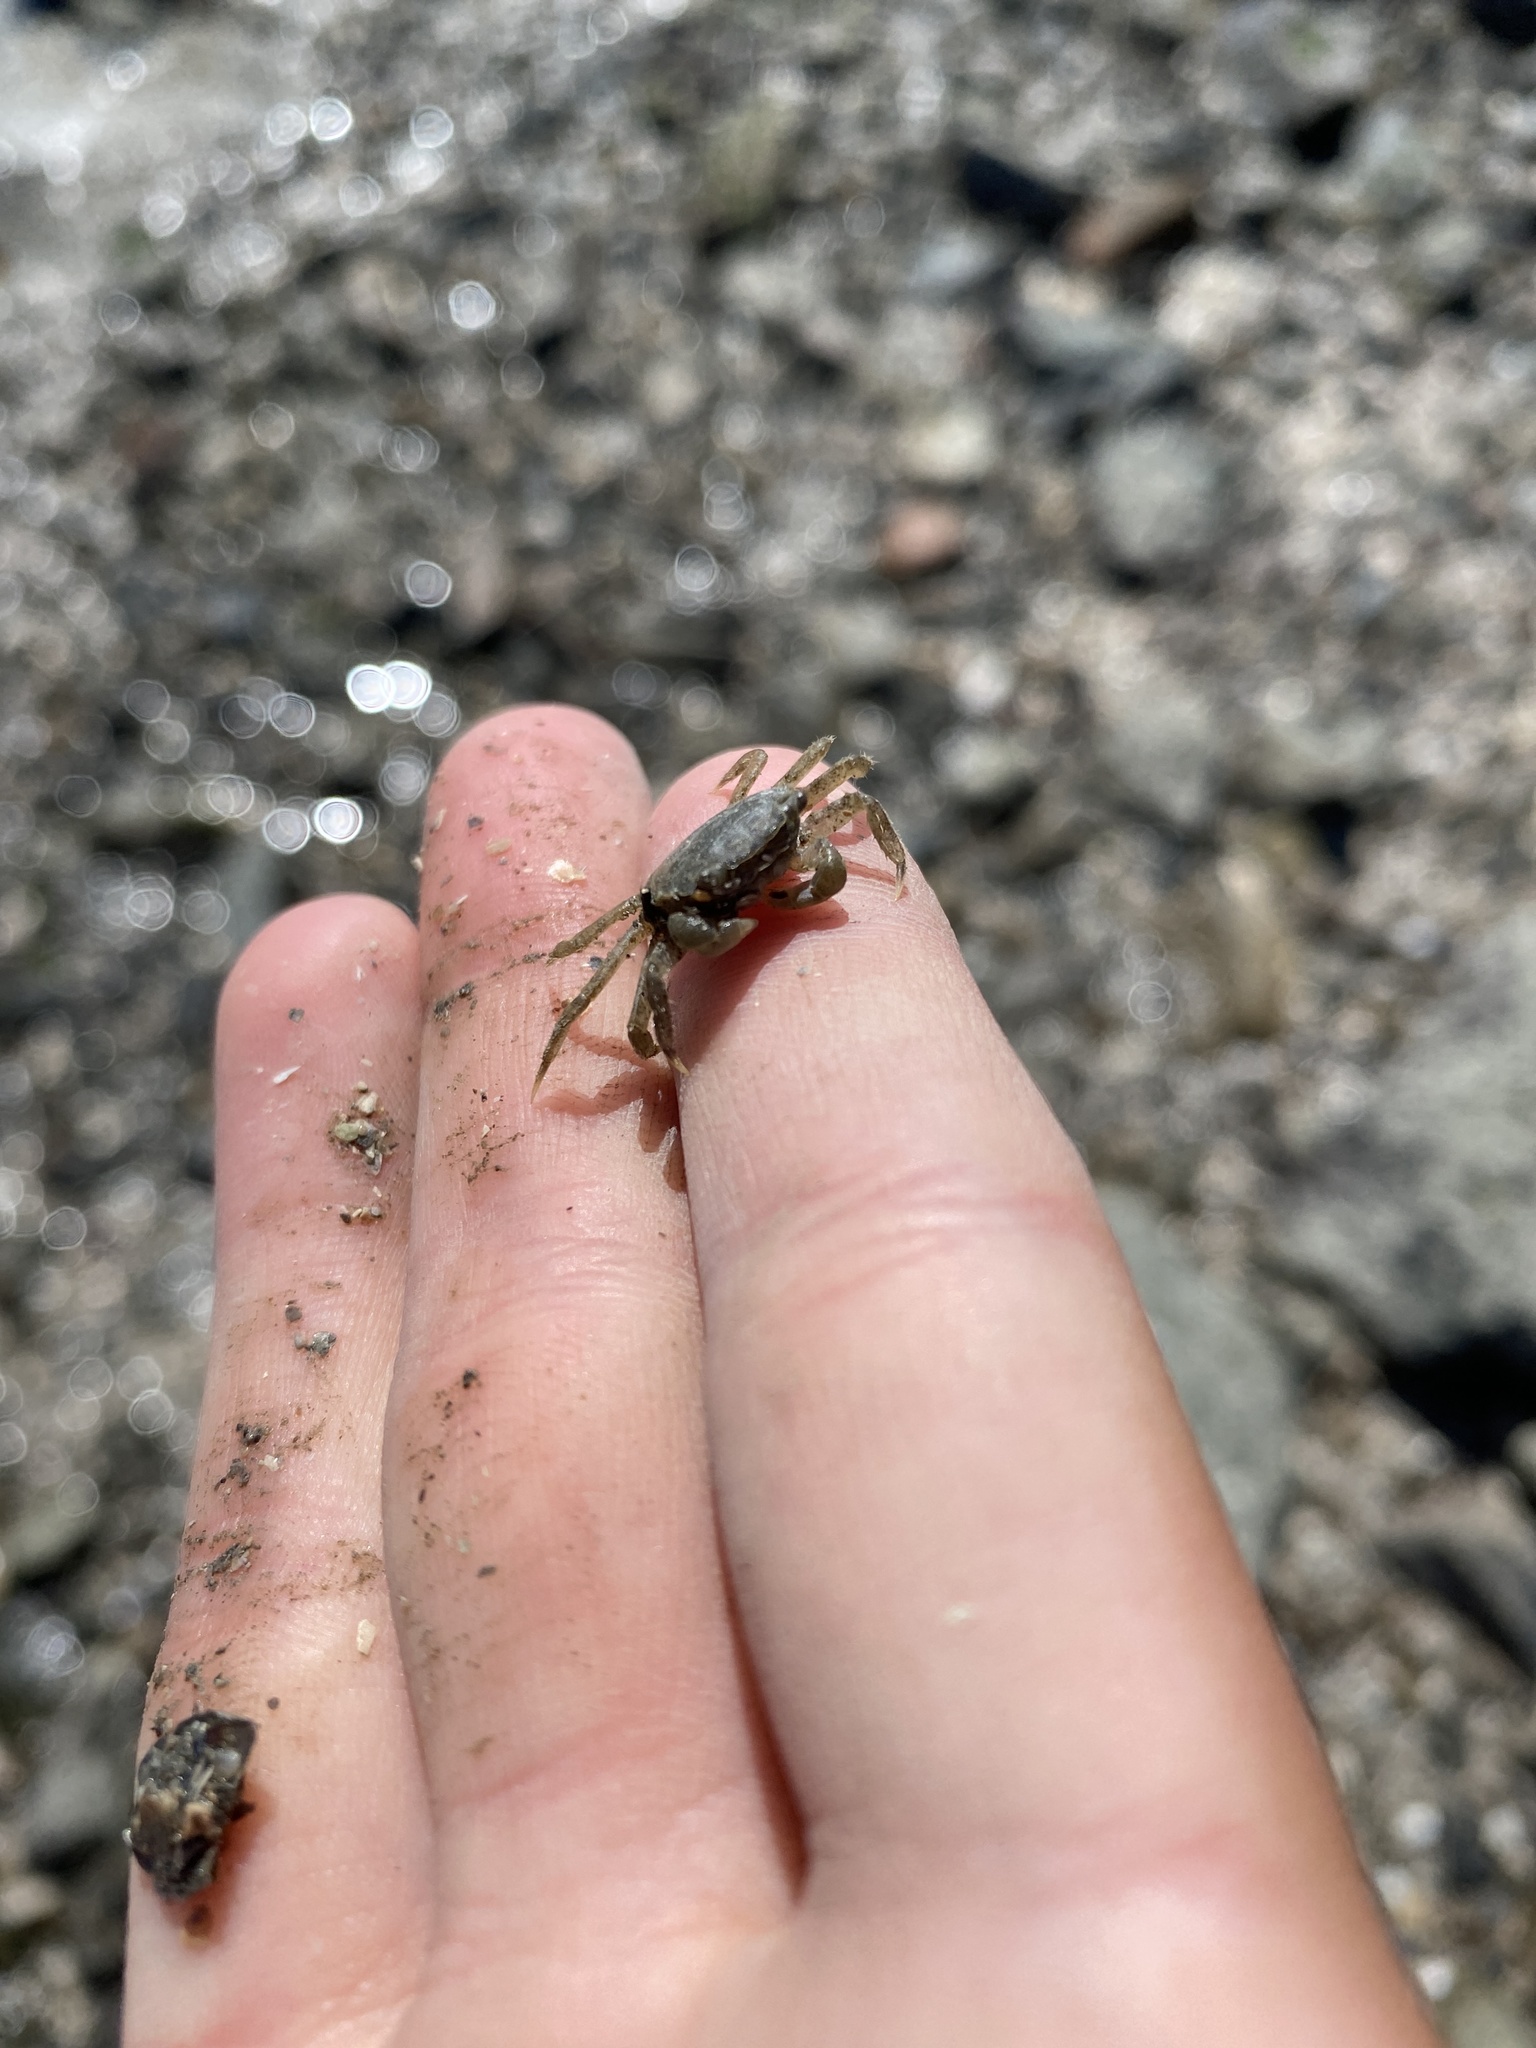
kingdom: Animalia
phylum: Arthropoda
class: Malacostraca
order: Decapoda
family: Varunidae
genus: Hemigrapsus
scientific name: Hemigrapsus oregonensis
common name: Yellow shore crab
